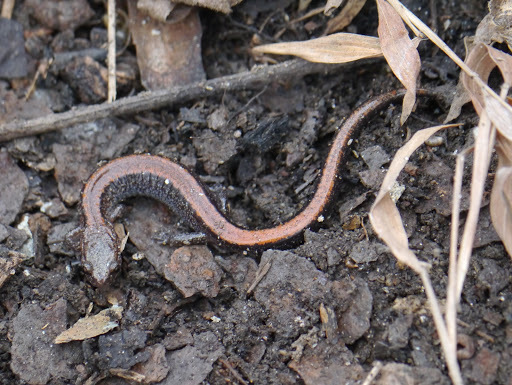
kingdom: Animalia
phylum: Chordata
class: Amphibia
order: Caudata
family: Plethodontidae
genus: Plethodon
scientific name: Plethodon cinereus
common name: Redback salamander
